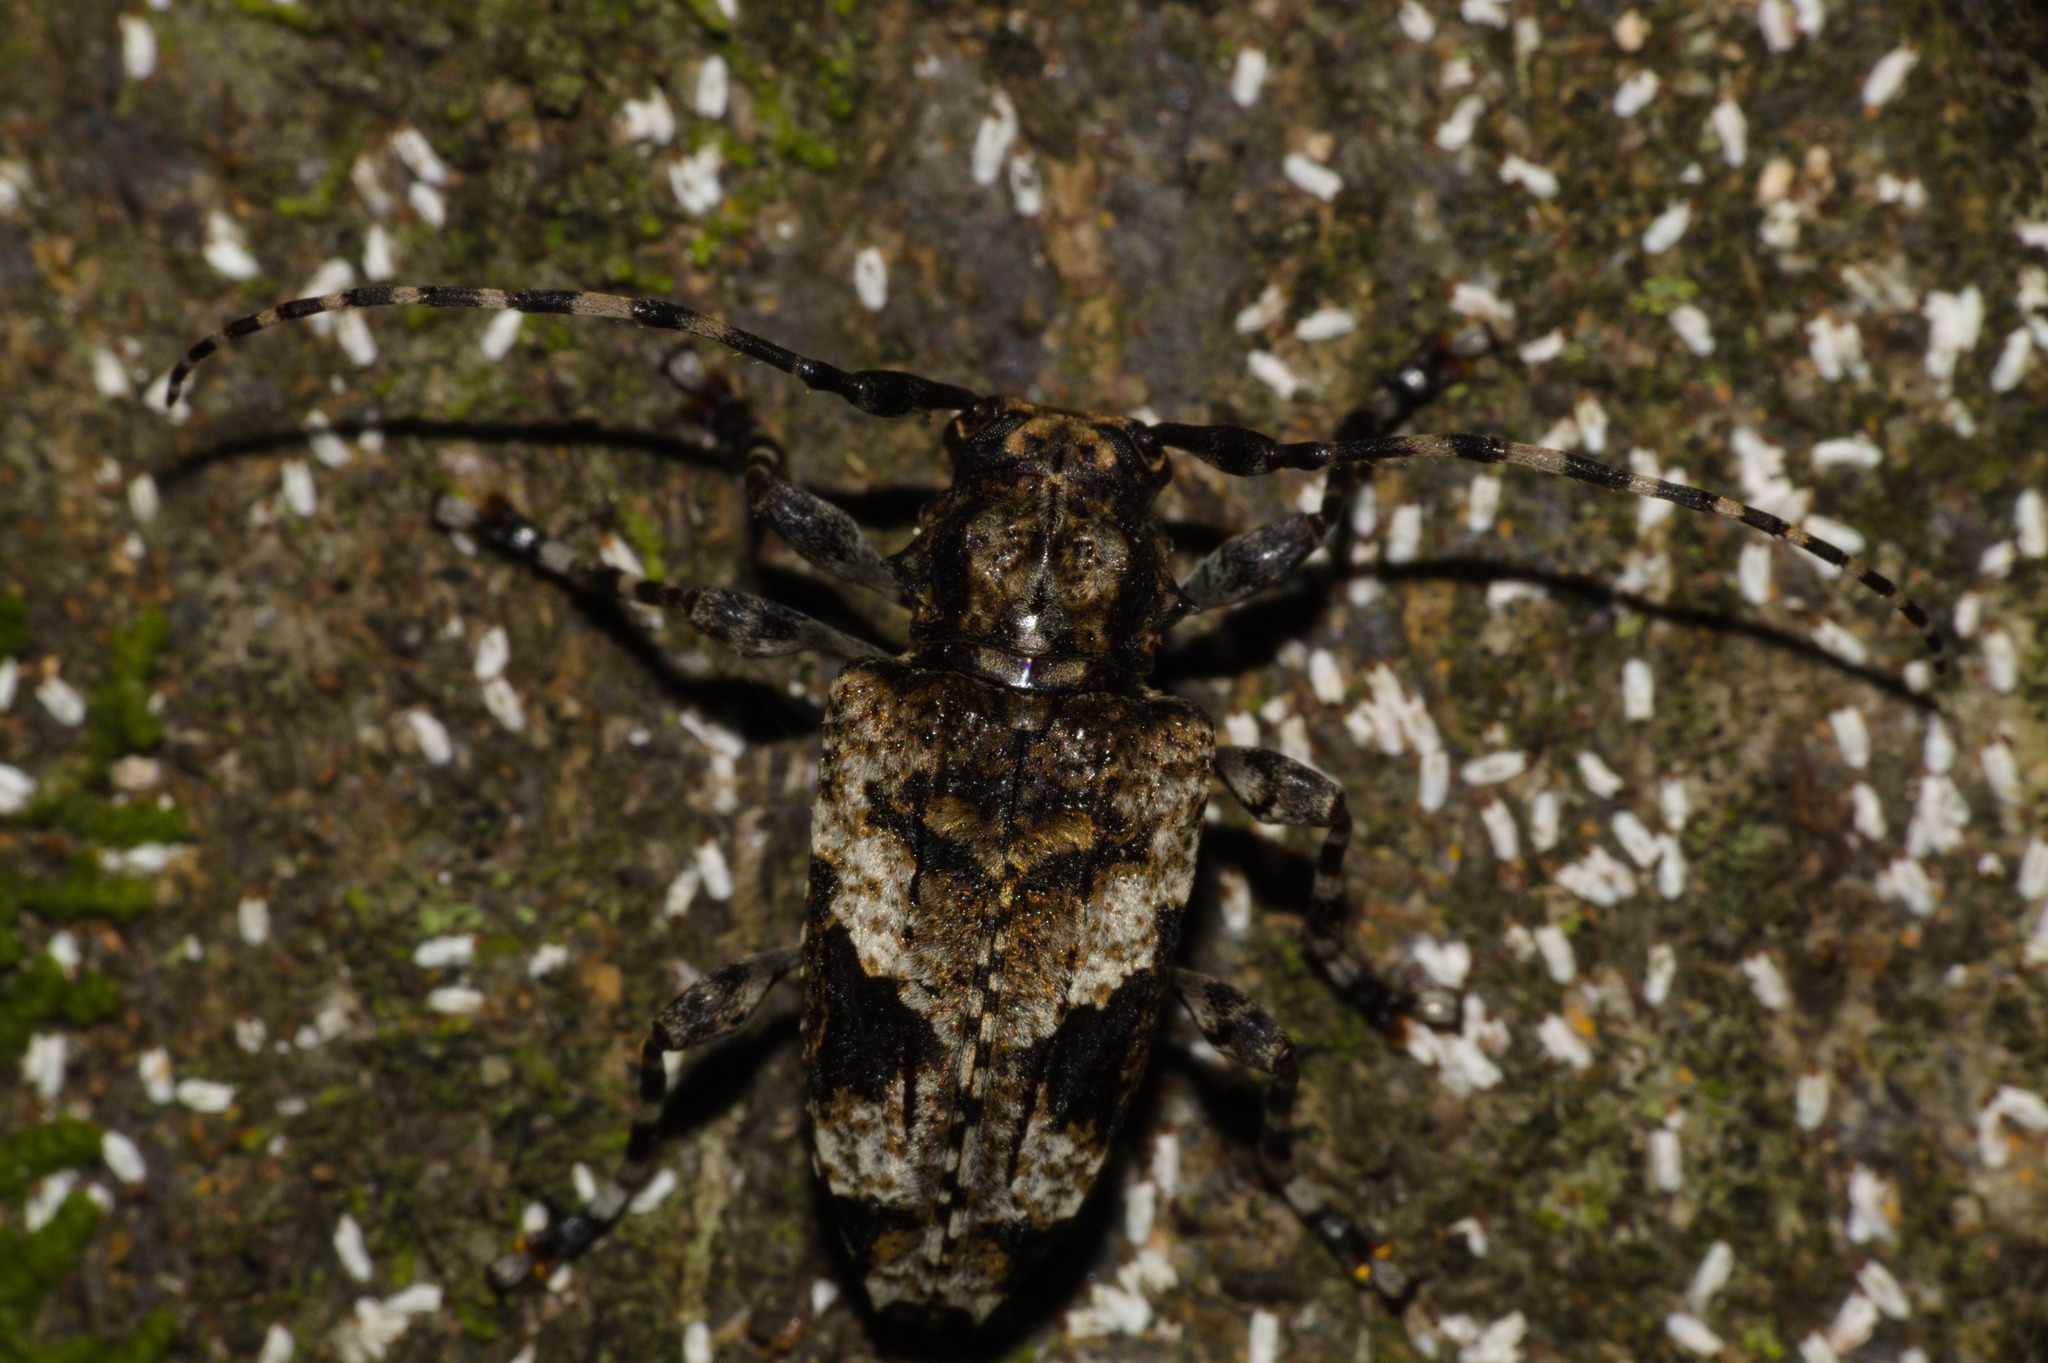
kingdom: Animalia
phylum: Arthropoda
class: Insecta
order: Coleoptera
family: Cerambycidae
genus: Psapharochrus
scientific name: Psapharochrus jaspideus
